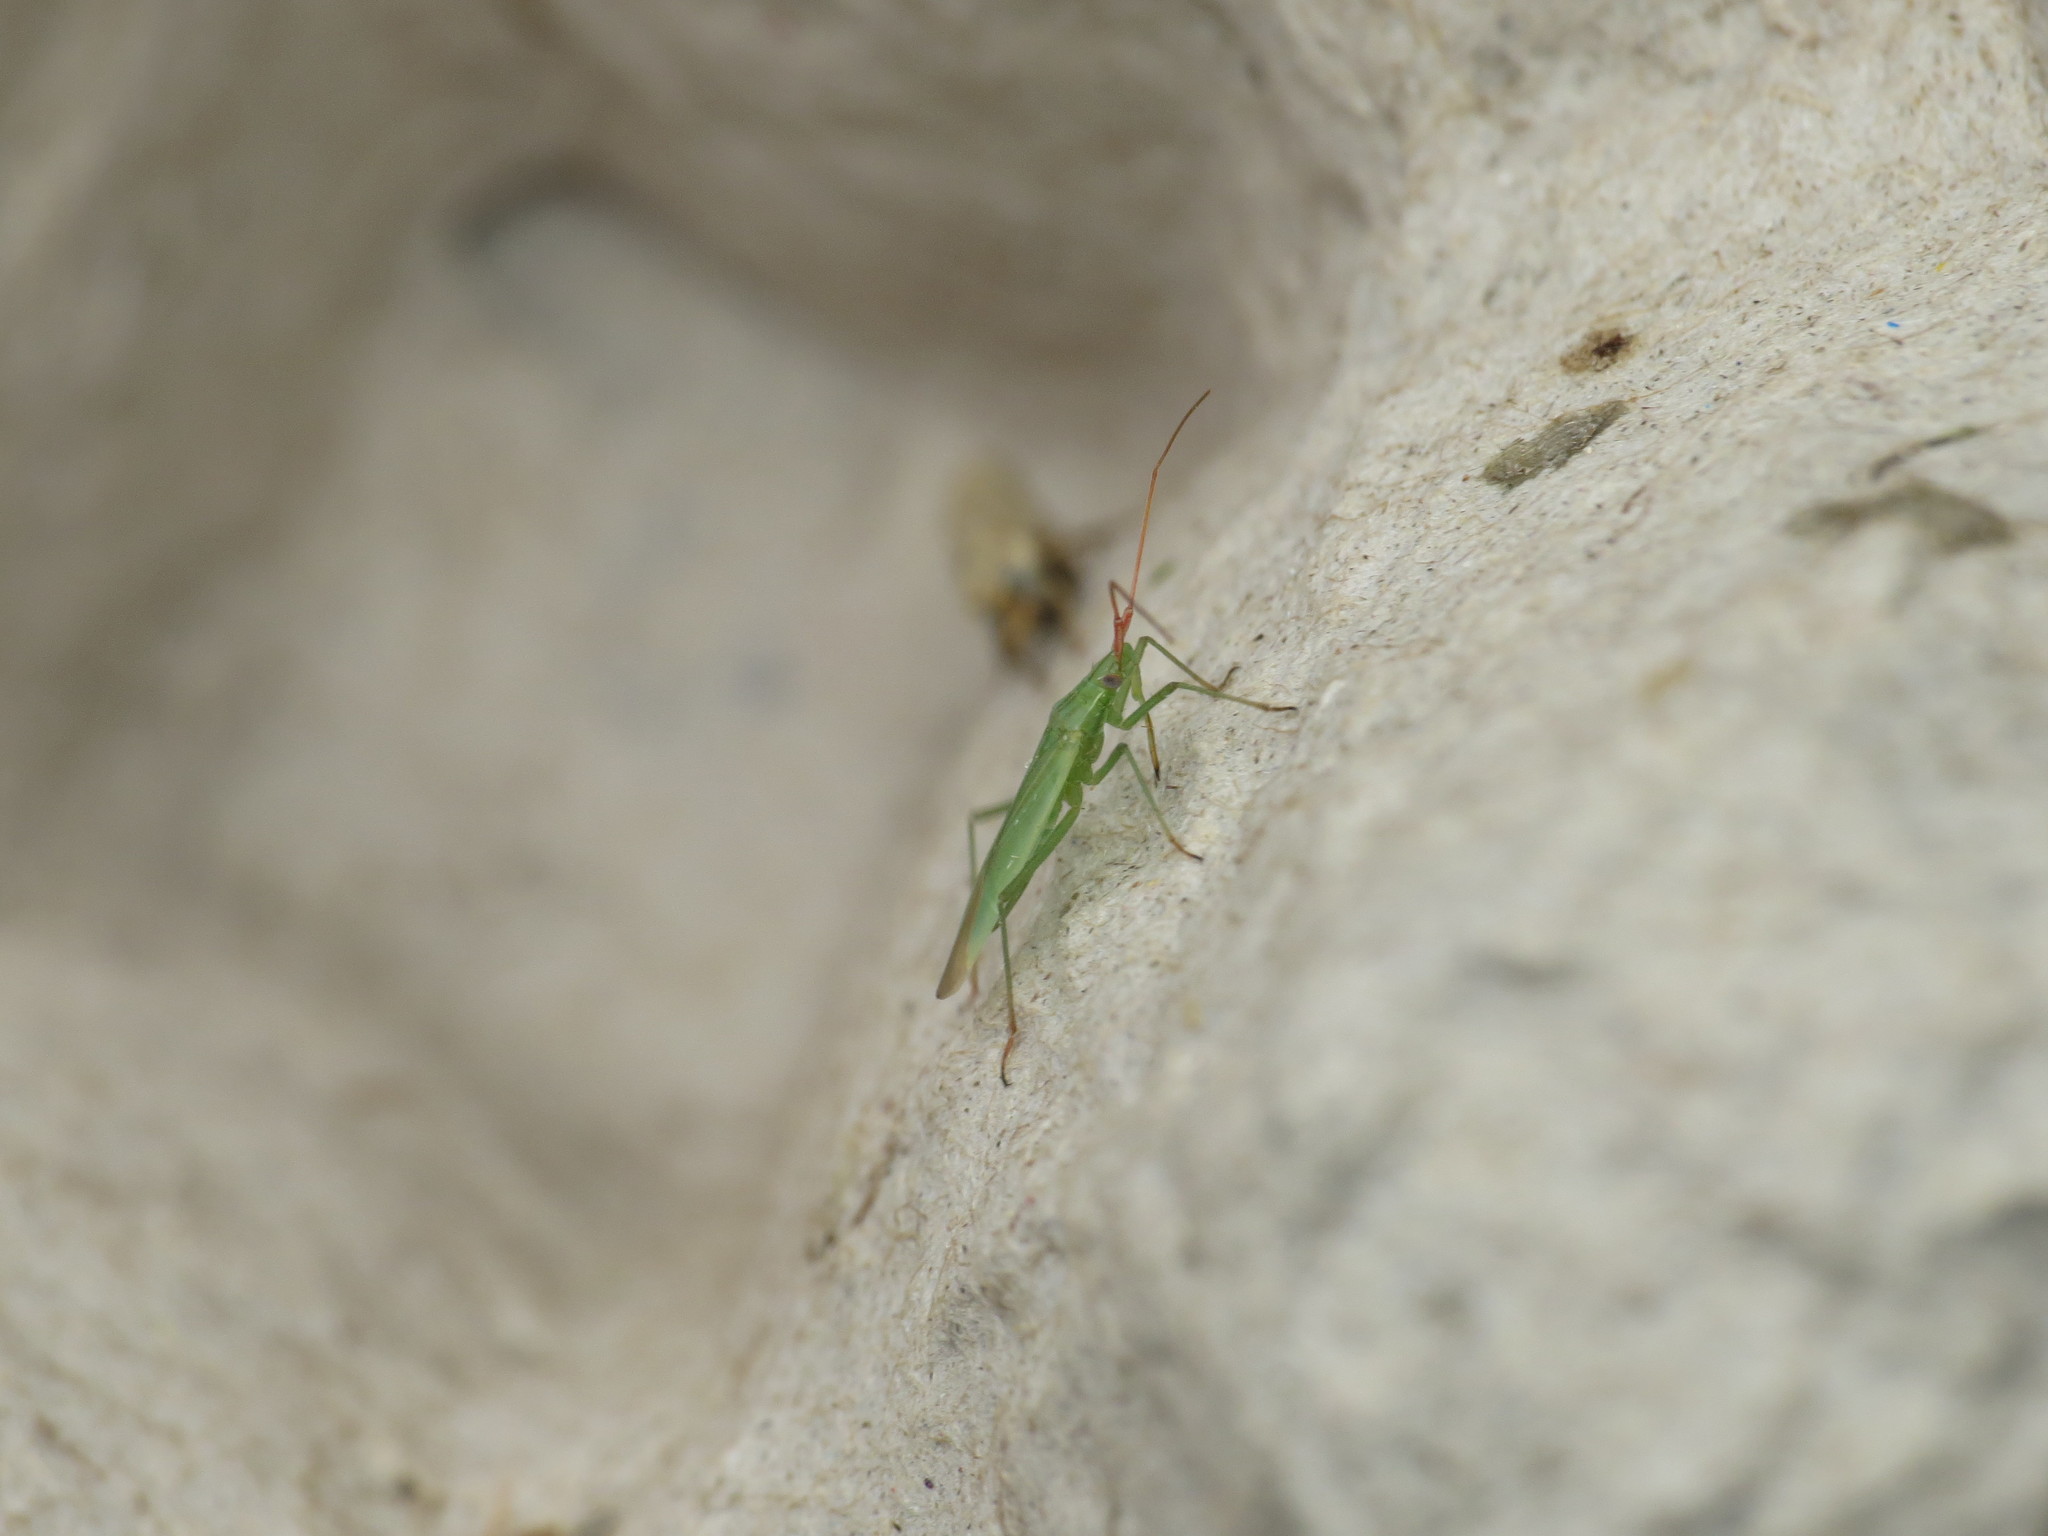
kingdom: Animalia
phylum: Arthropoda
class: Insecta
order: Hemiptera
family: Miridae
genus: Trigonotylus
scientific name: Trigonotylus caelestialium
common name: Rice leaf bug
